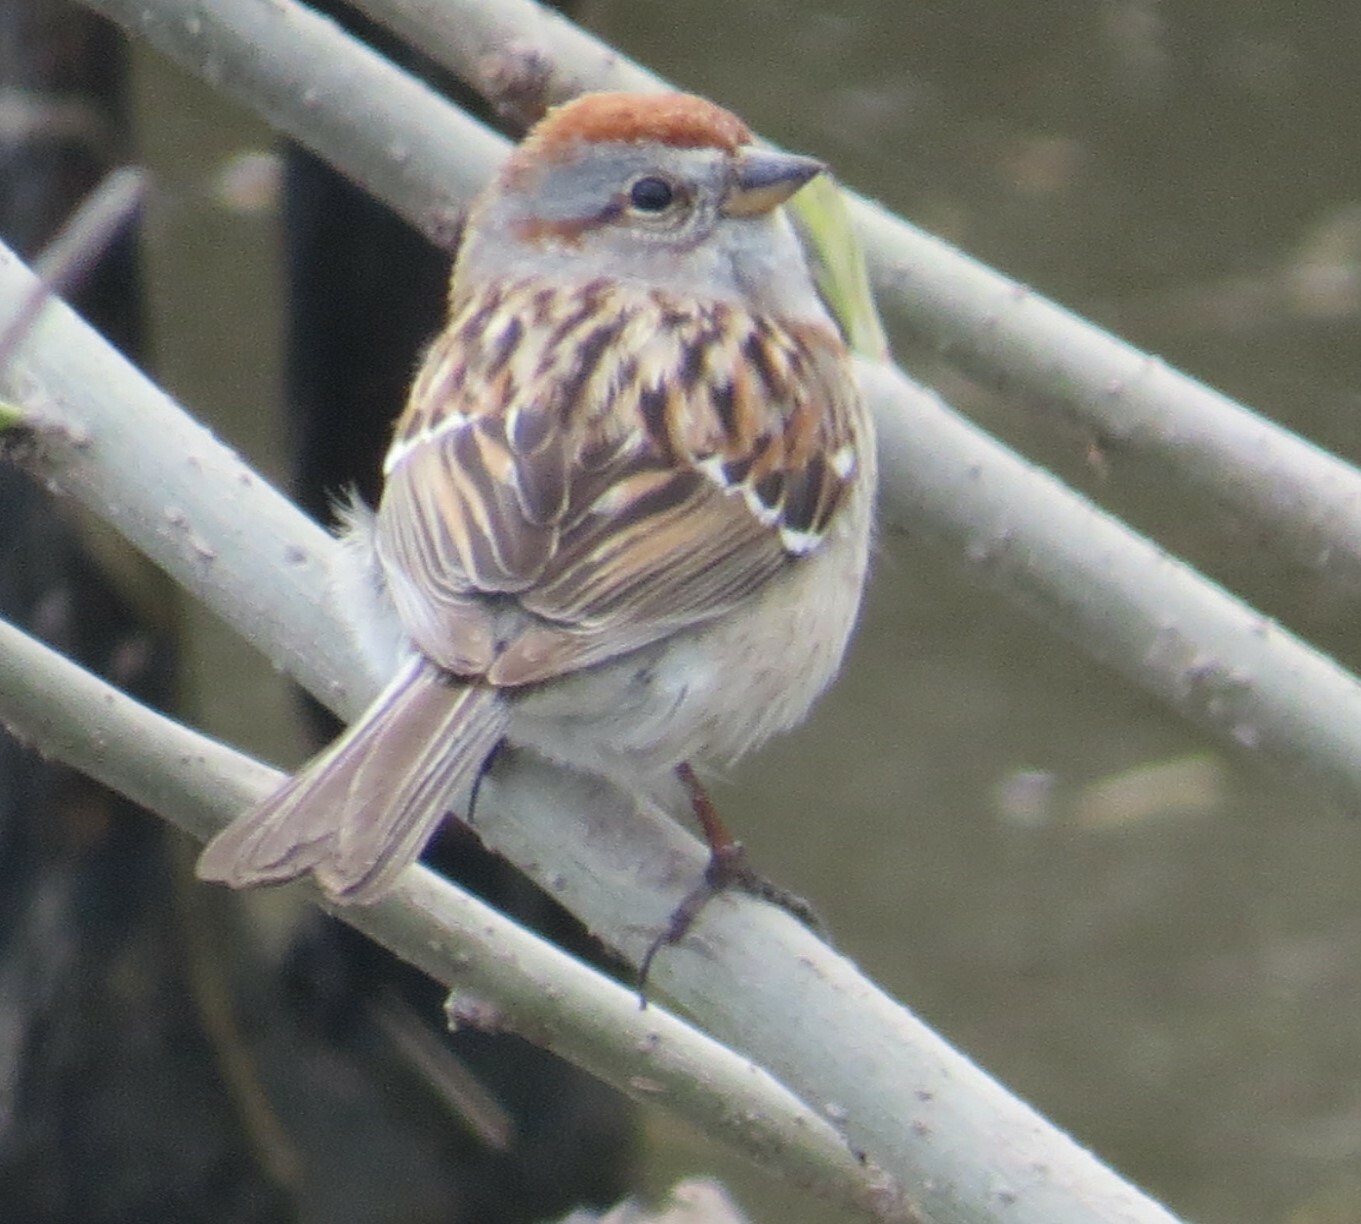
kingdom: Animalia
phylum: Chordata
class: Aves
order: Passeriformes
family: Passerellidae
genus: Spizelloides
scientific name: Spizelloides arborea
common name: American tree sparrow
